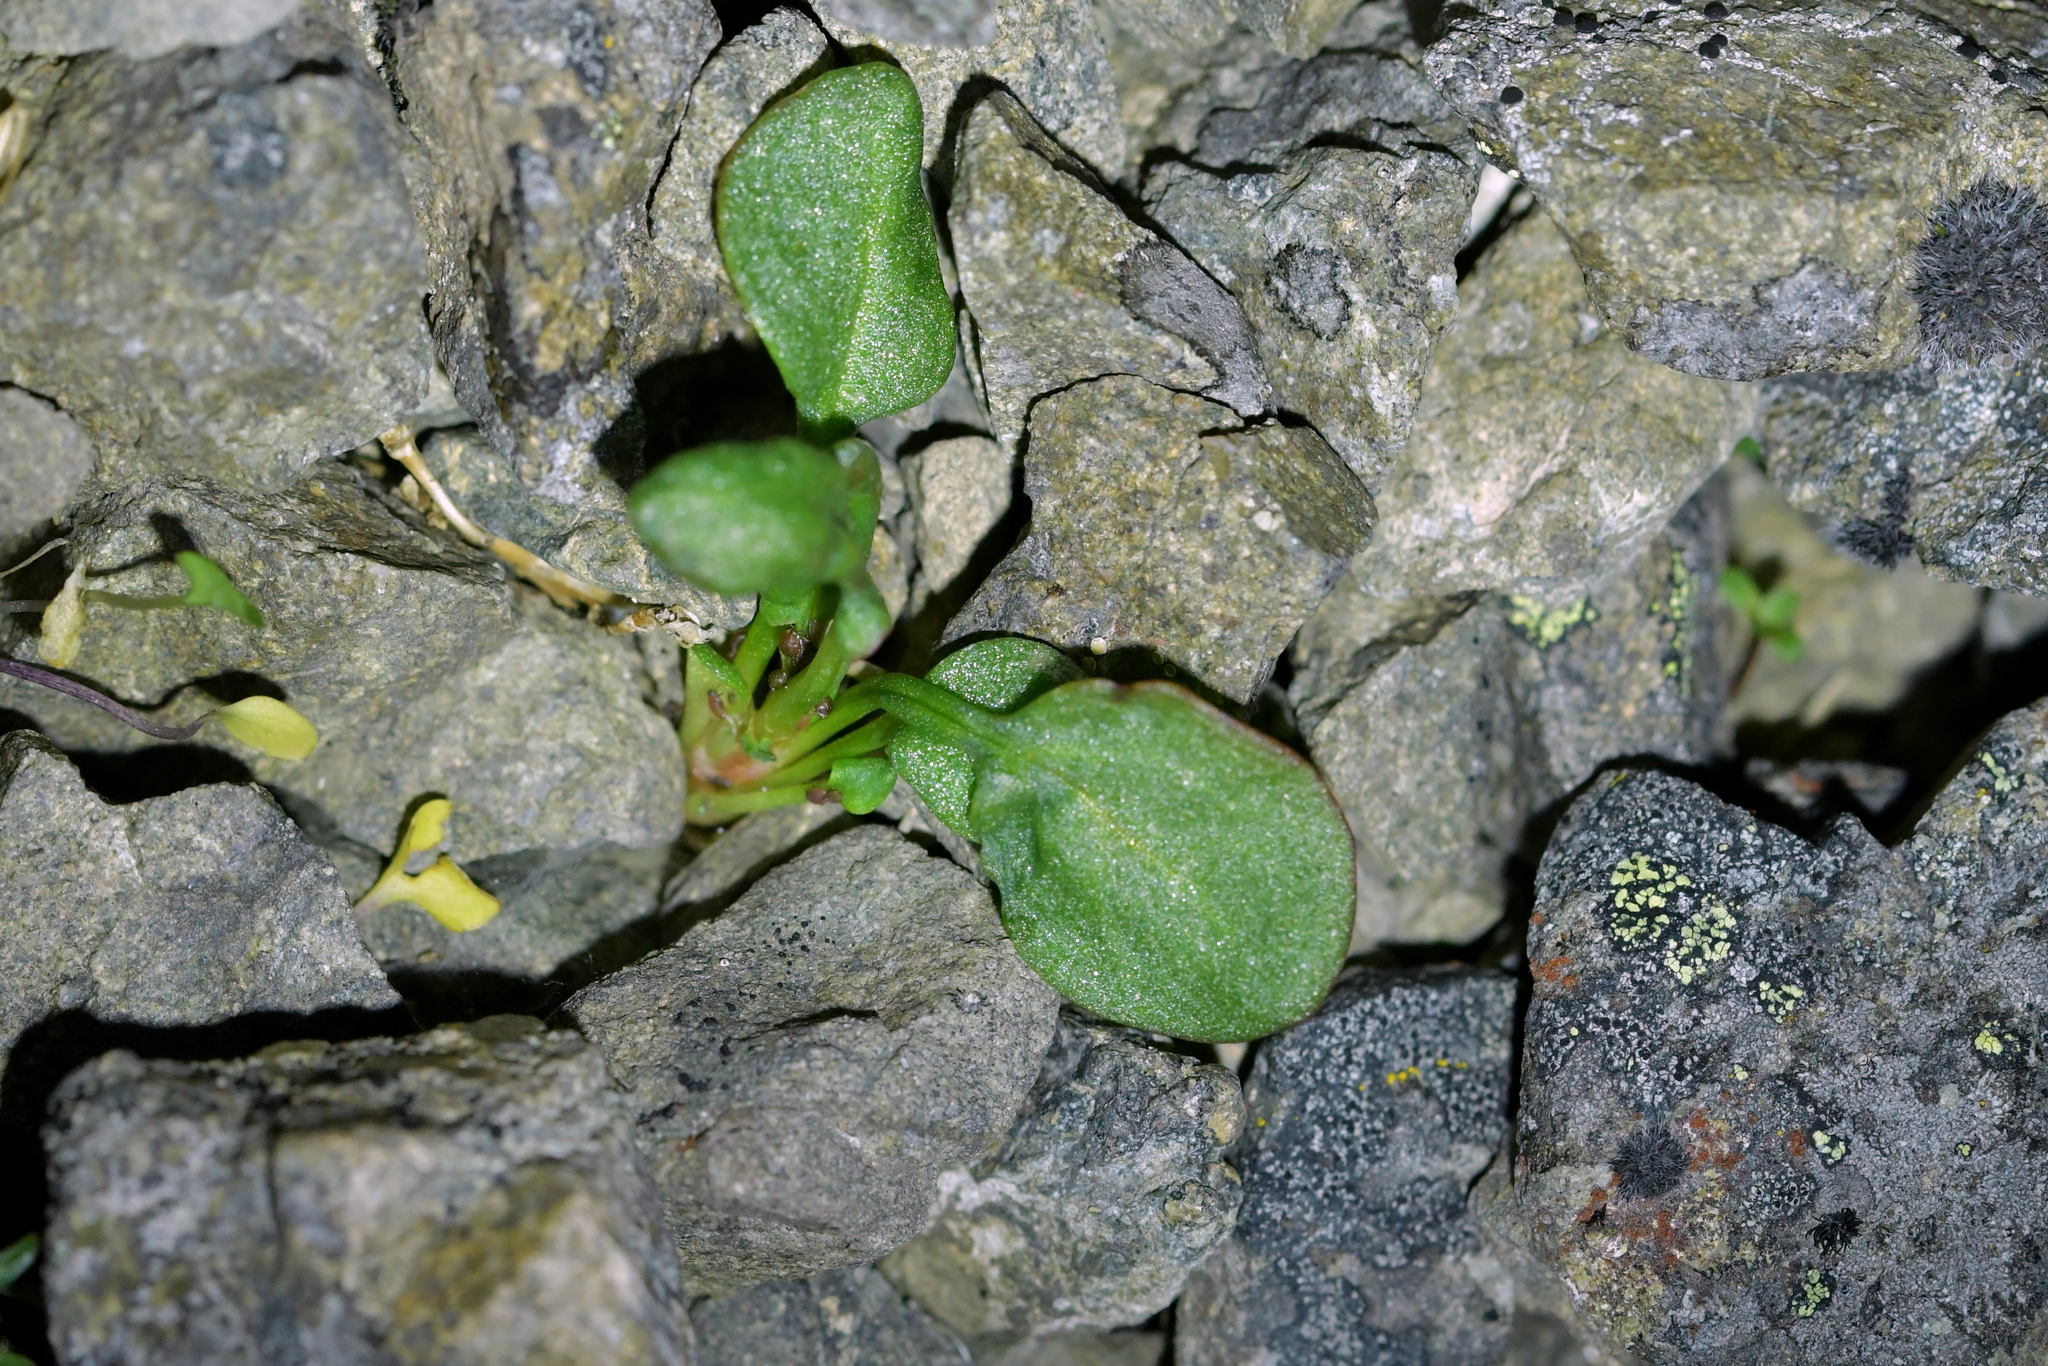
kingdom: Plantae
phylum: Tracheophyta
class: Magnoliopsida
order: Caryophyllales
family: Polygonaceae
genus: Rumex
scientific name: Rumex acetosella
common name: Common sheep sorrel
